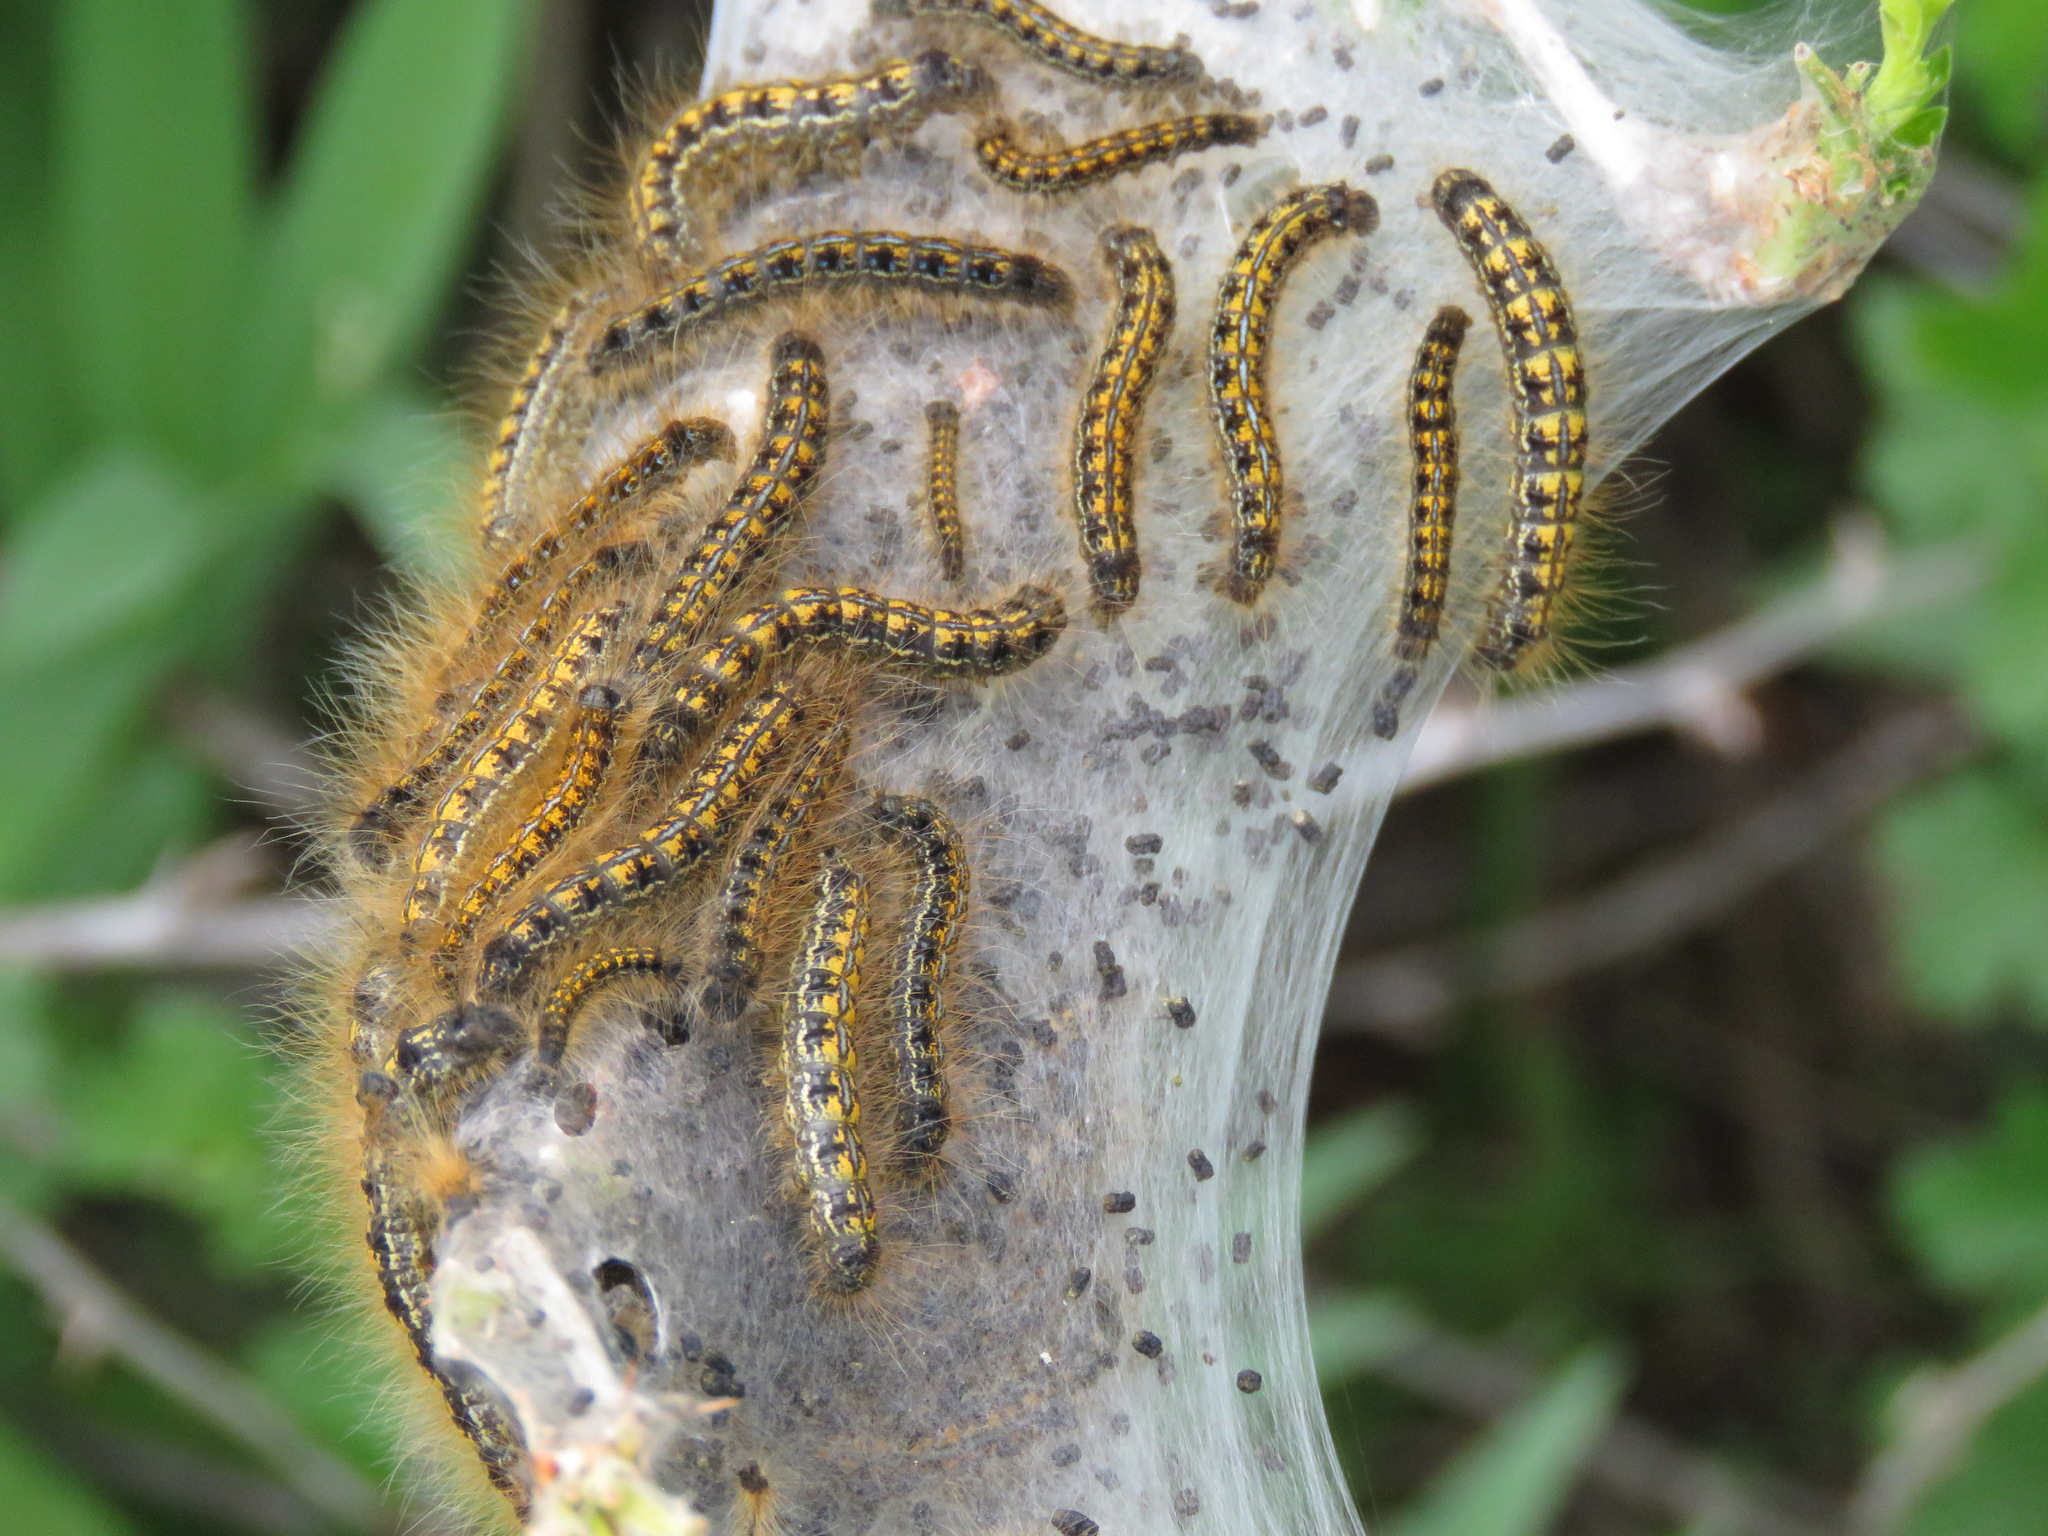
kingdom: Animalia
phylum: Arthropoda
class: Insecta
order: Lepidoptera
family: Lasiocampidae
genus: Malacosoma
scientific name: Malacosoma californica
